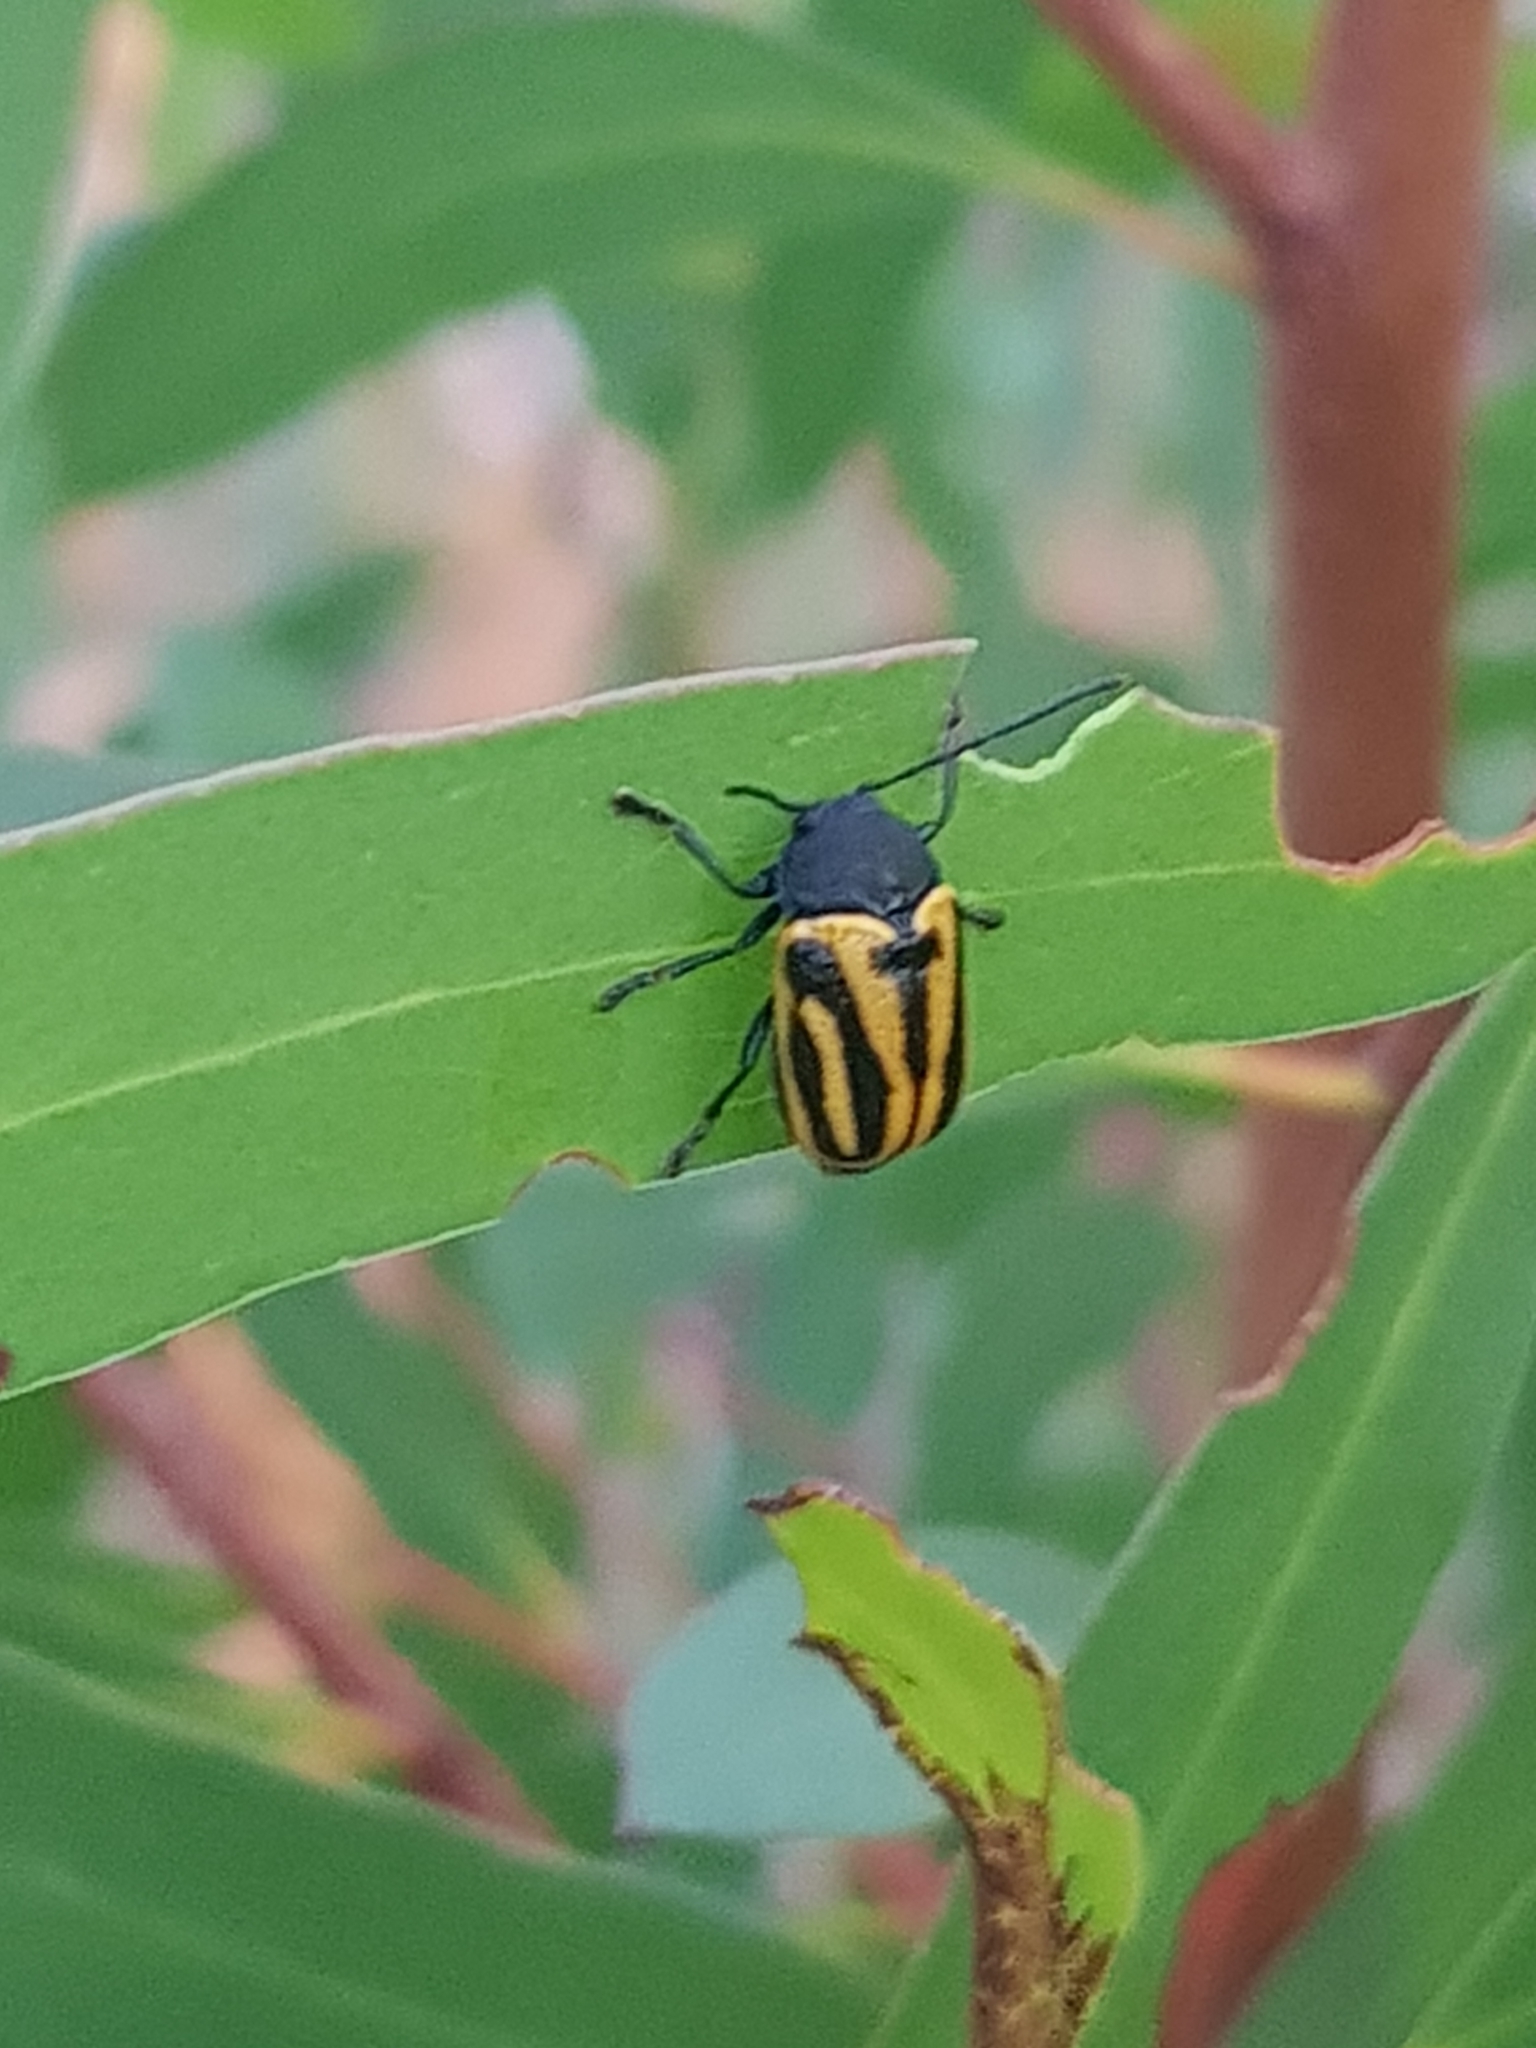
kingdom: Animalia
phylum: Arthropoda
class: Insecta
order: Coleoptera
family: Chrysomelidae
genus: Cadmus
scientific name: Cadmus
